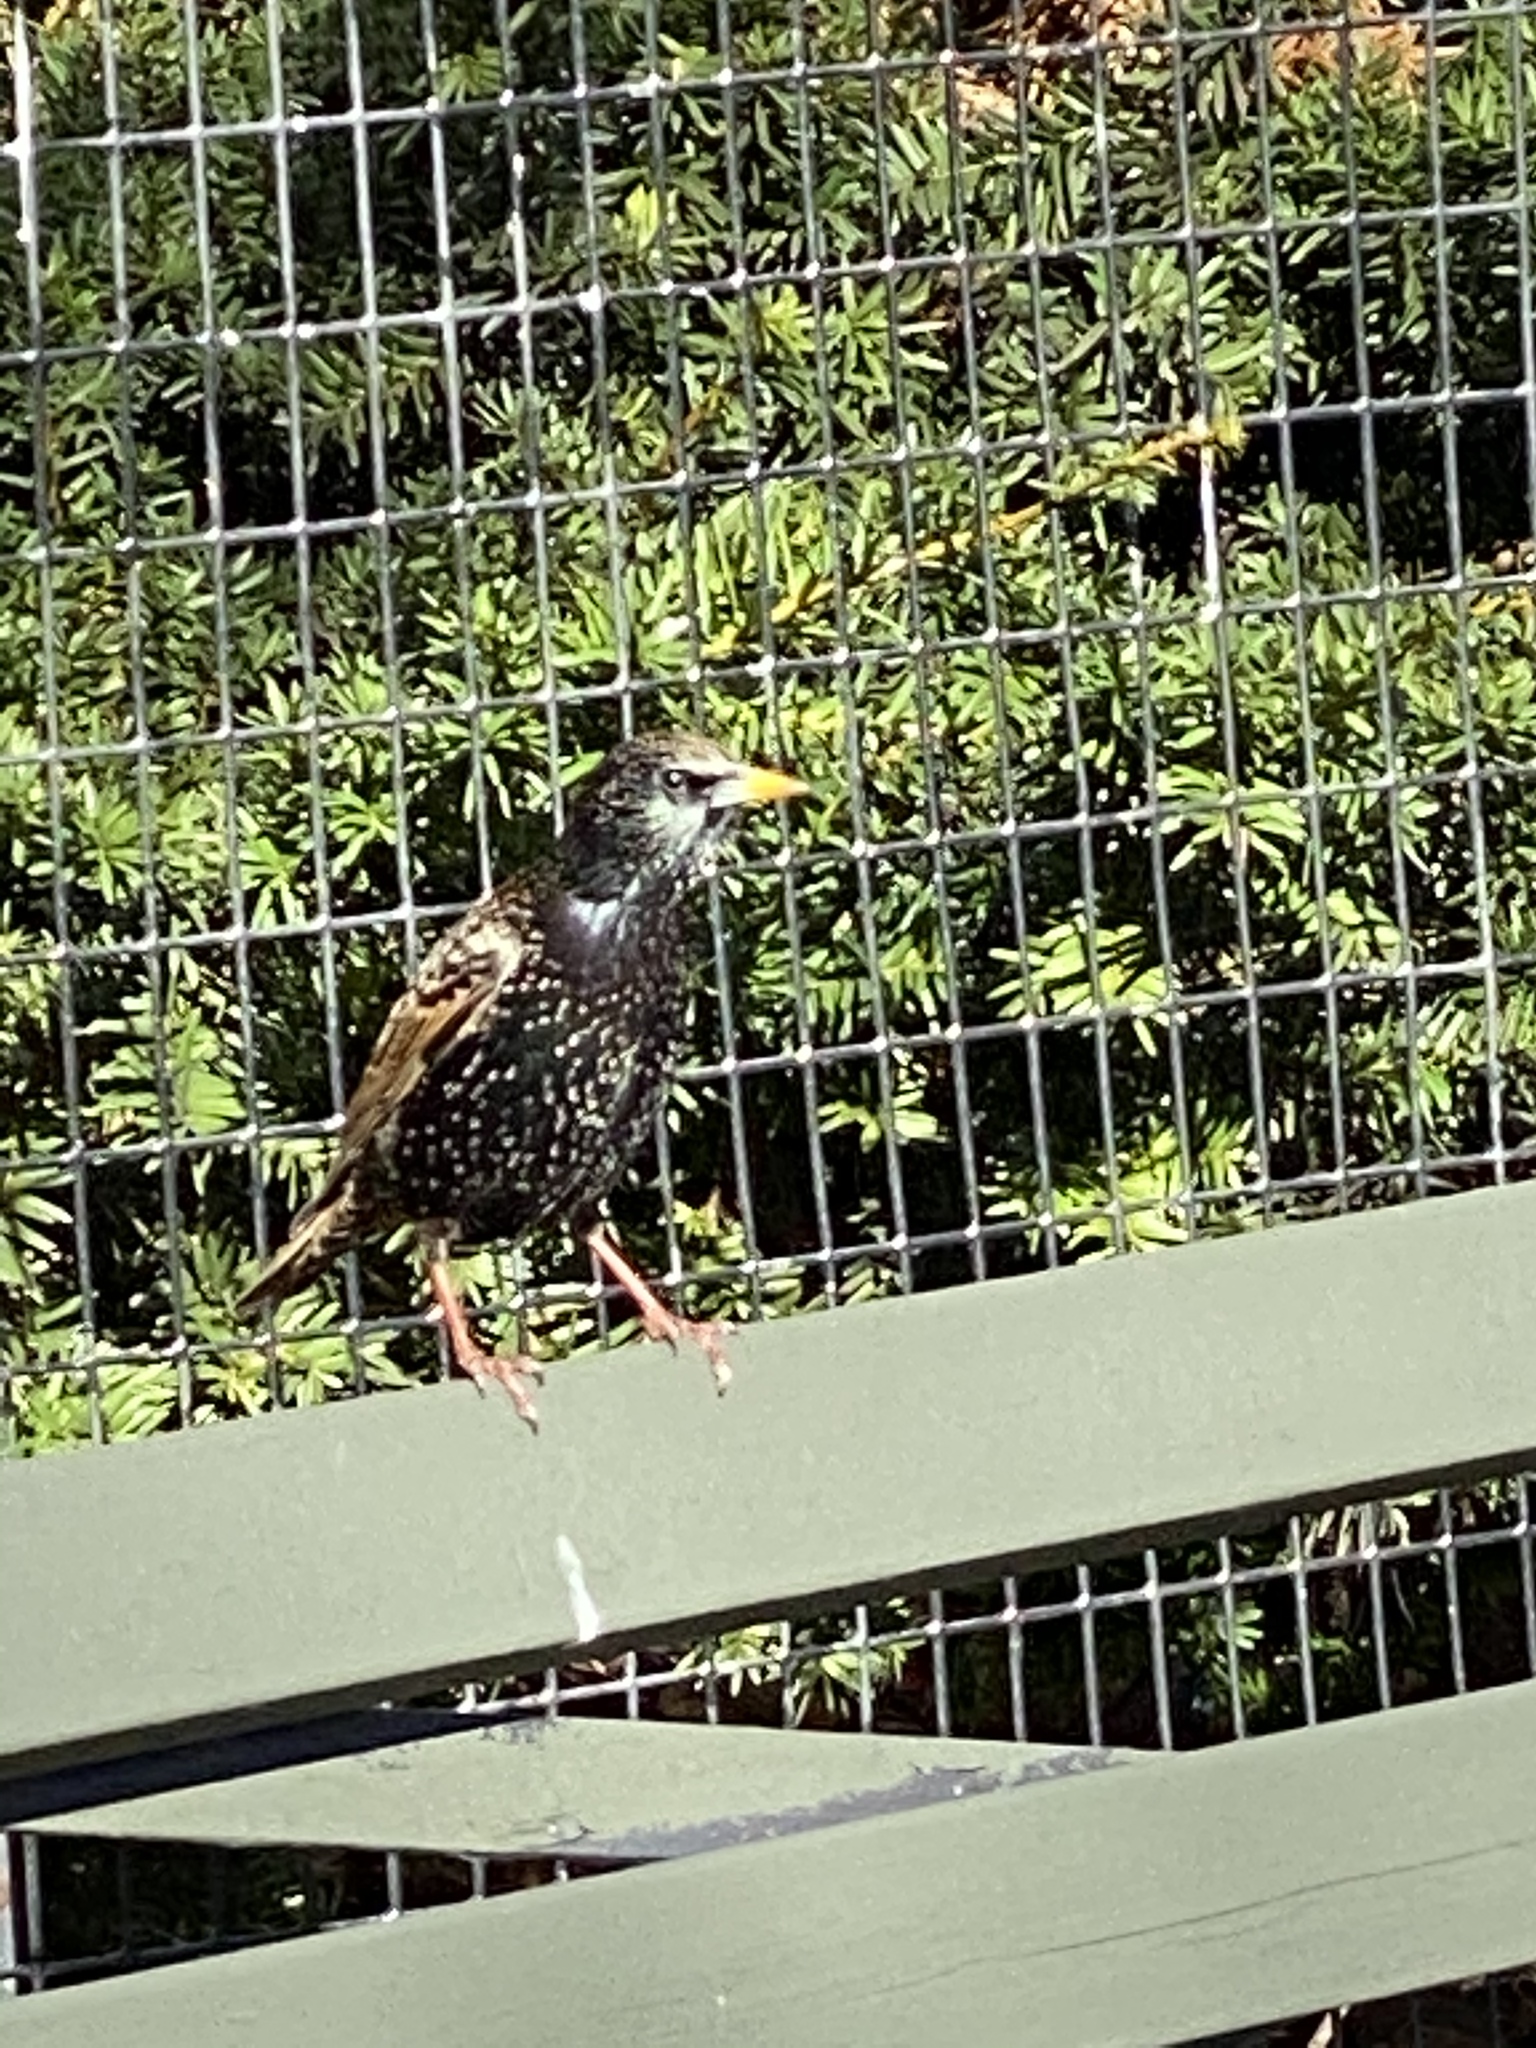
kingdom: Animalia
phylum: Chordata
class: Aves
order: Passeriformes
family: Sturnidae
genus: Sturnus
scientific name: Sturnus vulgaris
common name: Common starling
